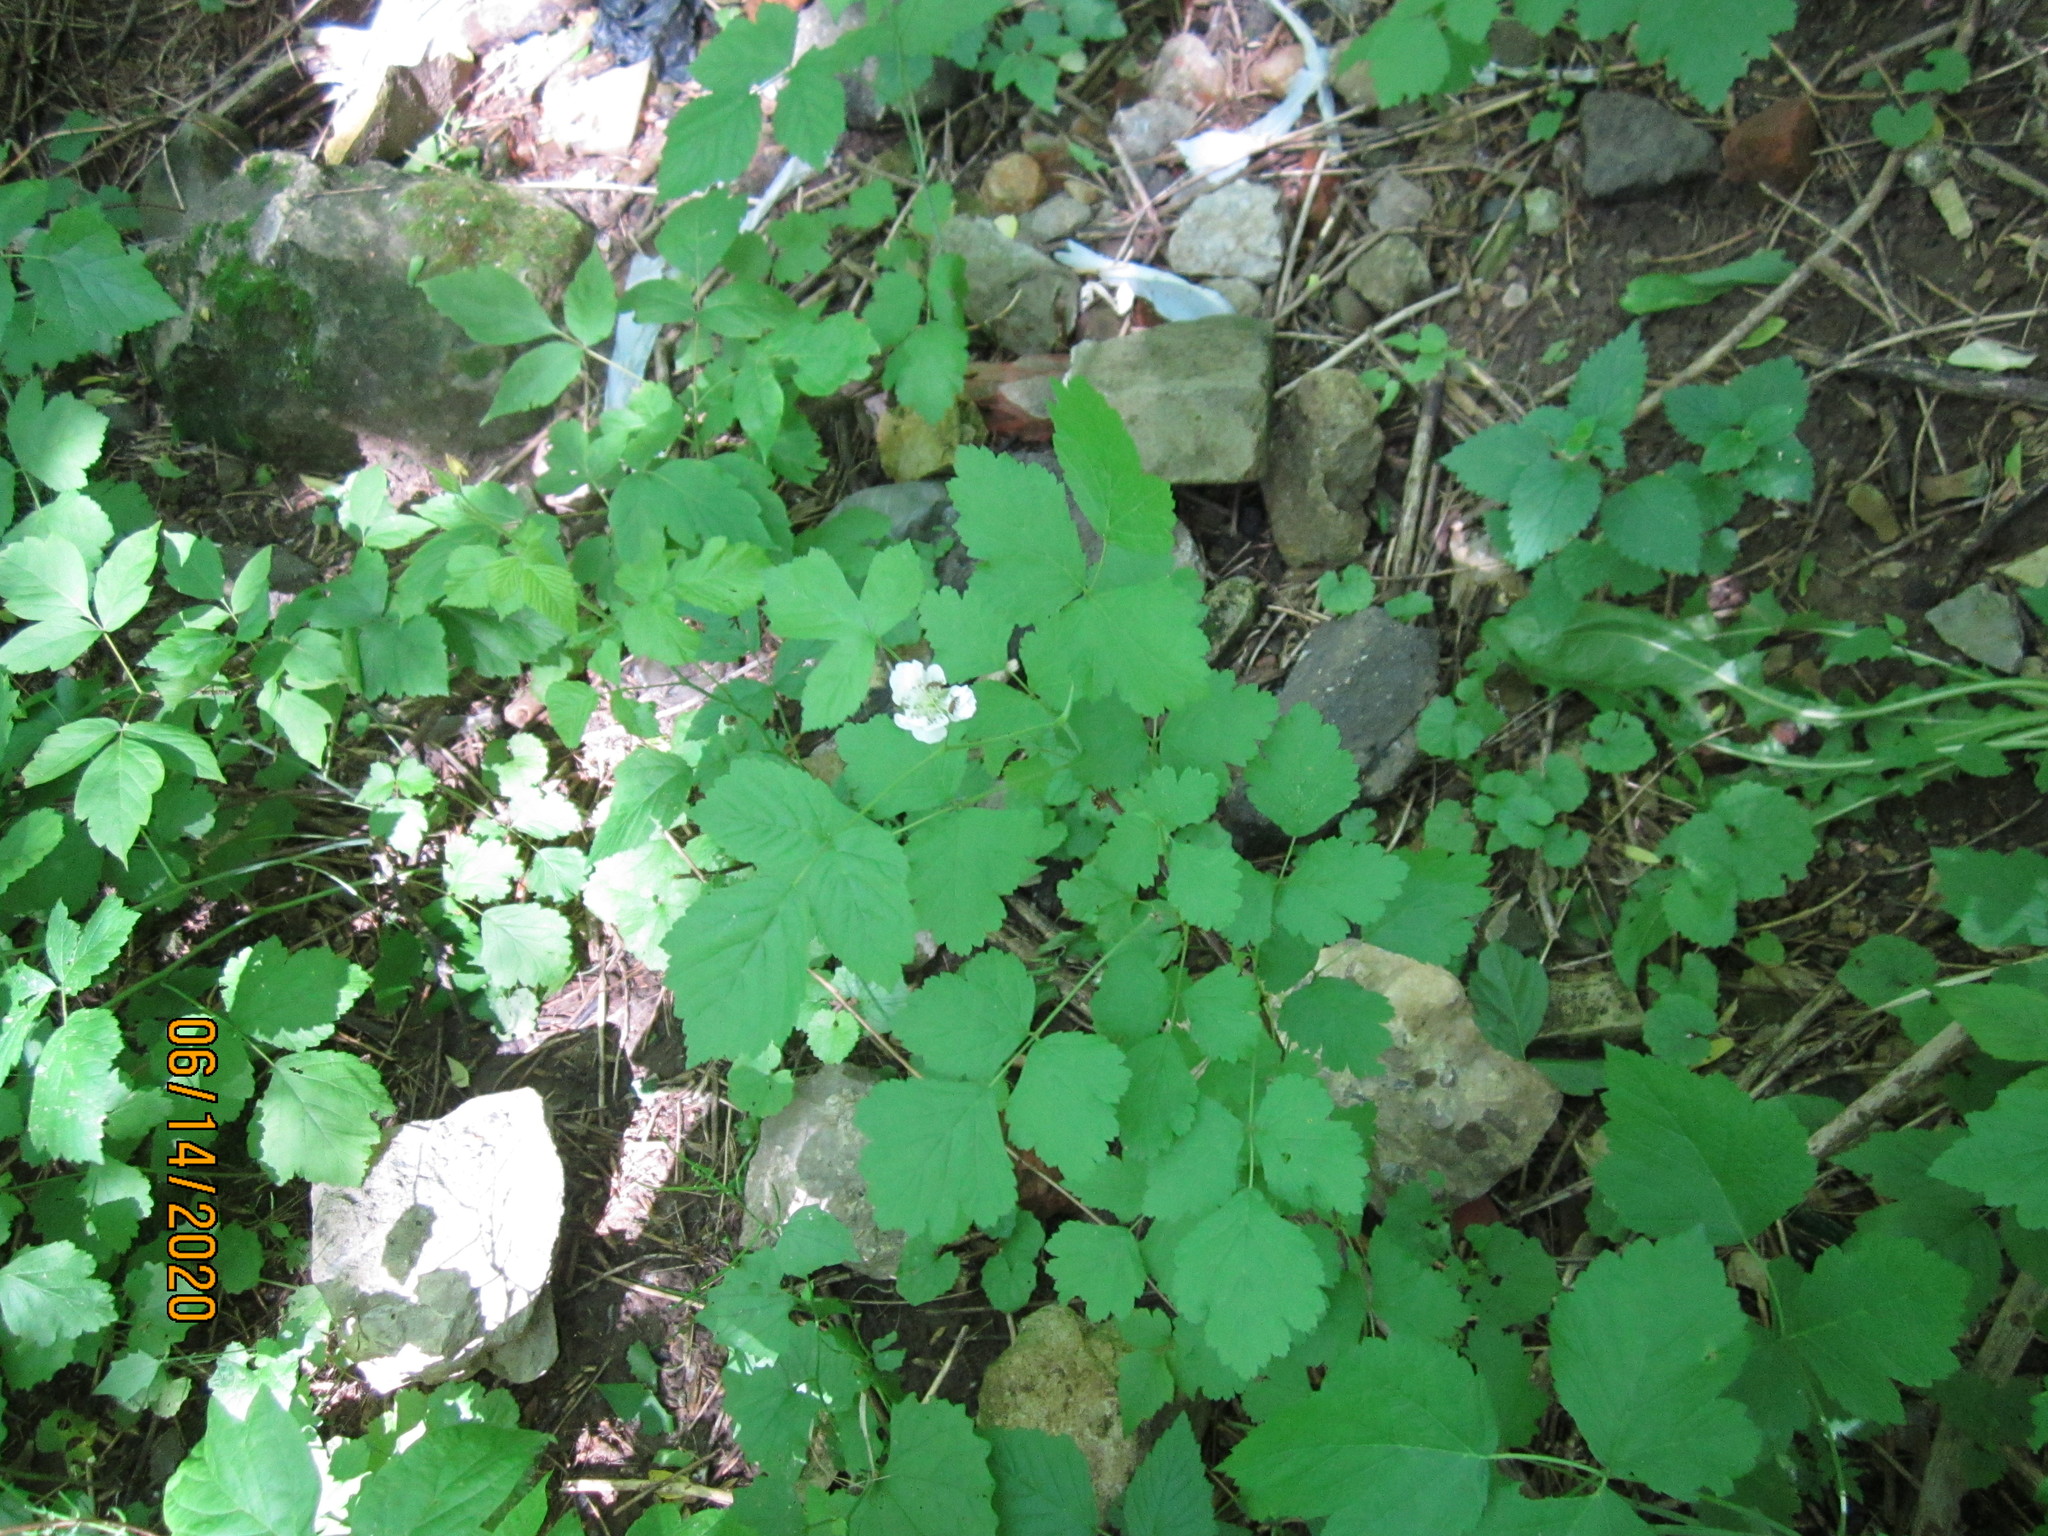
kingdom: Plantae
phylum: Tracheophyta
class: Magnoliopsida
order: Rosales
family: Rosaceae
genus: Rubus
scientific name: Rubus caesius
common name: Dewberry
